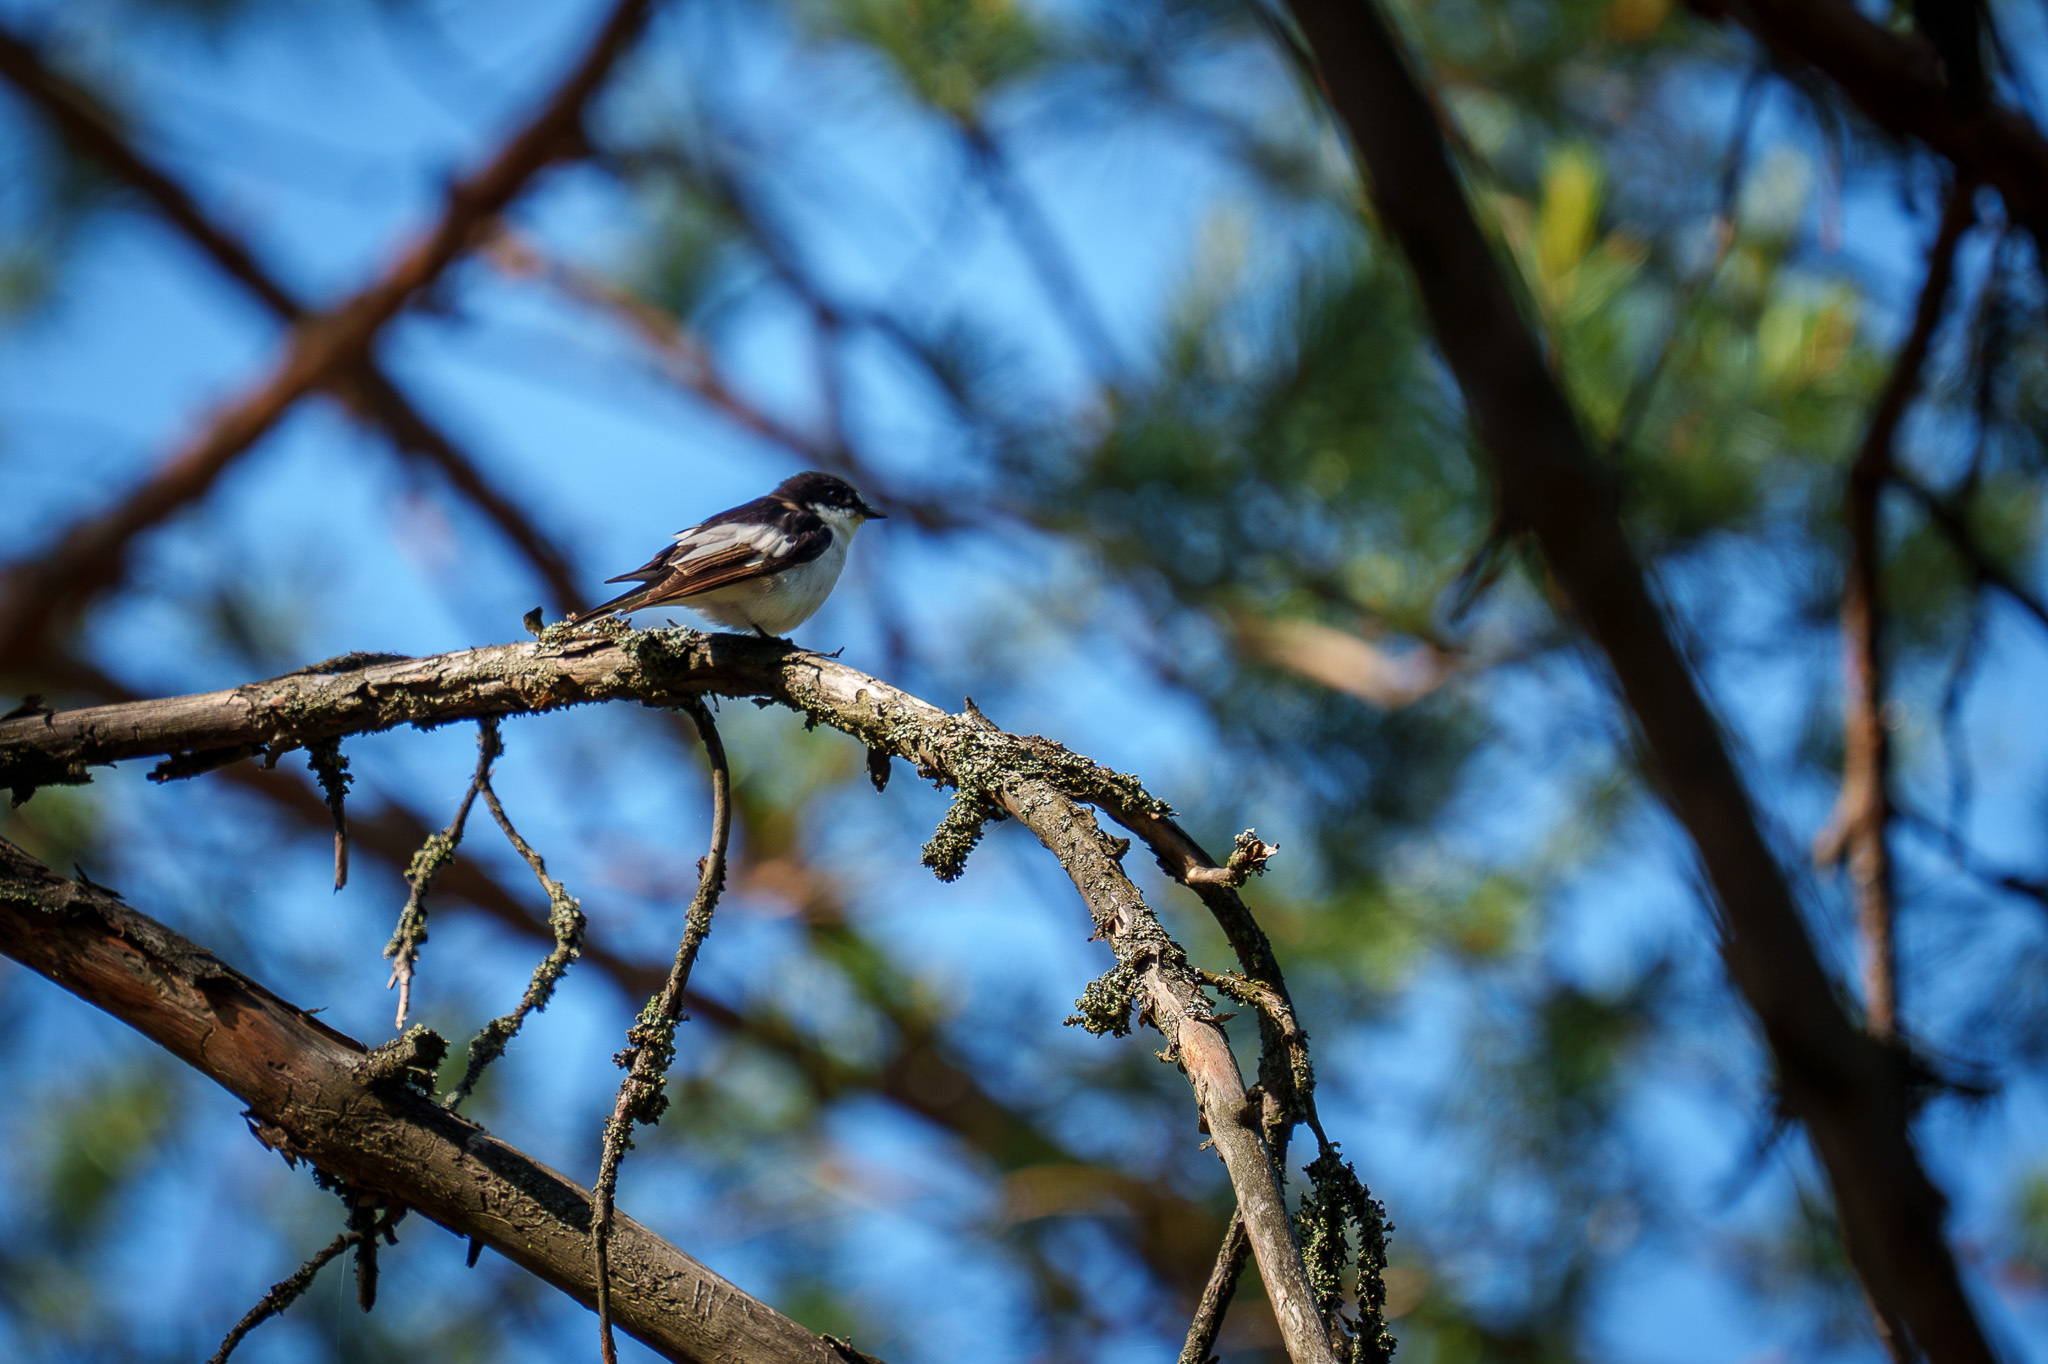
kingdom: Animalia
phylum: Chordata
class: Aves
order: Passeriformes
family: Muscicapidae
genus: Ficedula
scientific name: Ficedula hypoleuca
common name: European pied flycatcher
